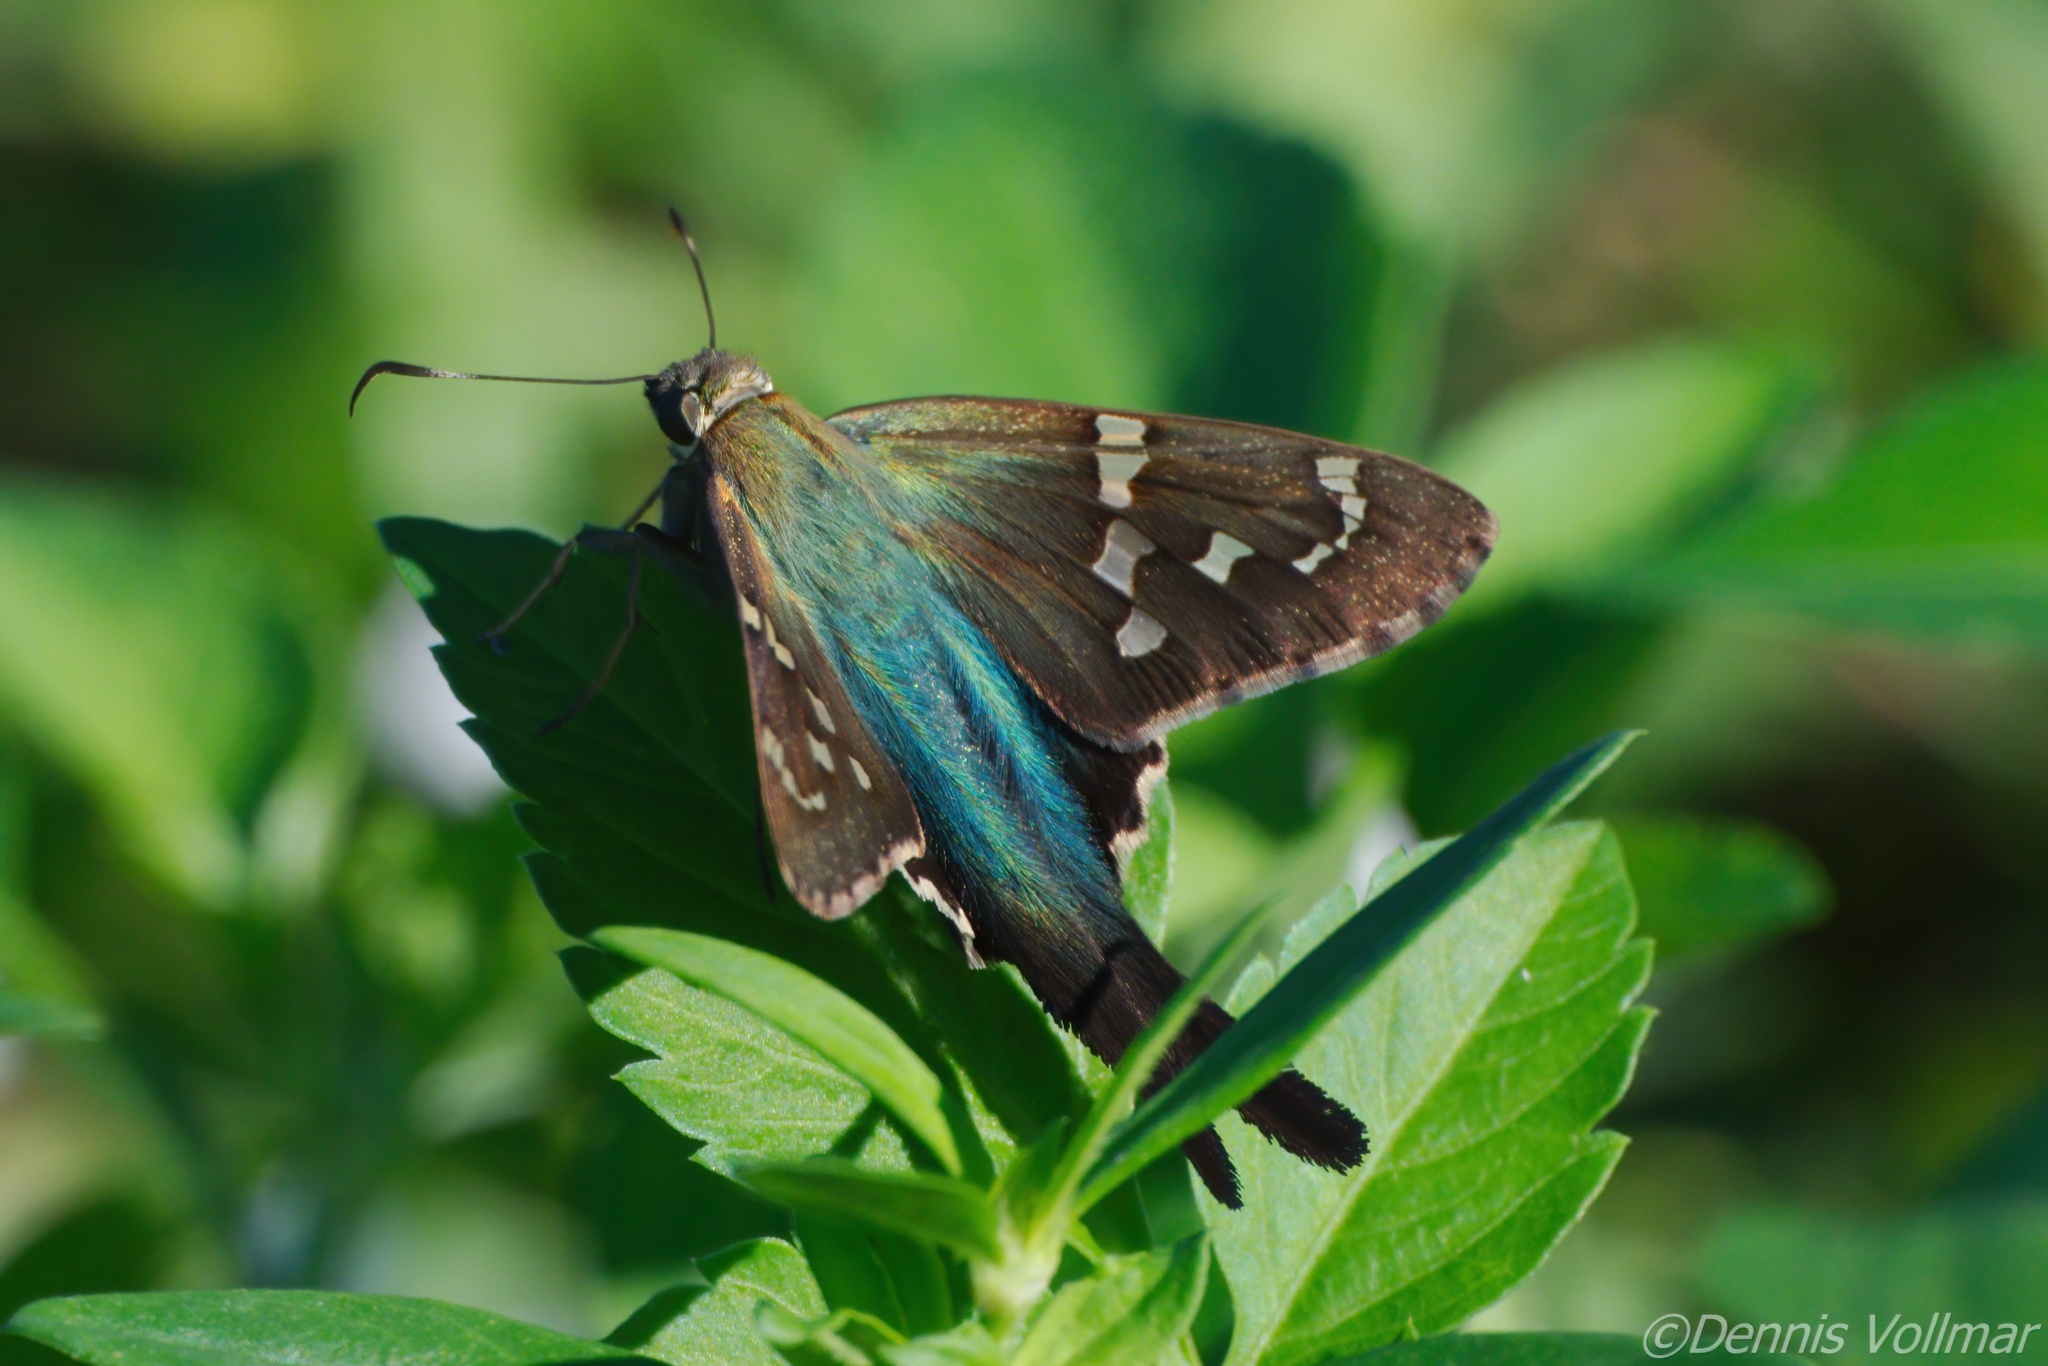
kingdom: Animalia
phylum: Arthropoda
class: Insecta
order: Lepidoptera
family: Hesperiidae
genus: Urbanus
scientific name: Urbanus proteus
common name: Long-tailed skipper
